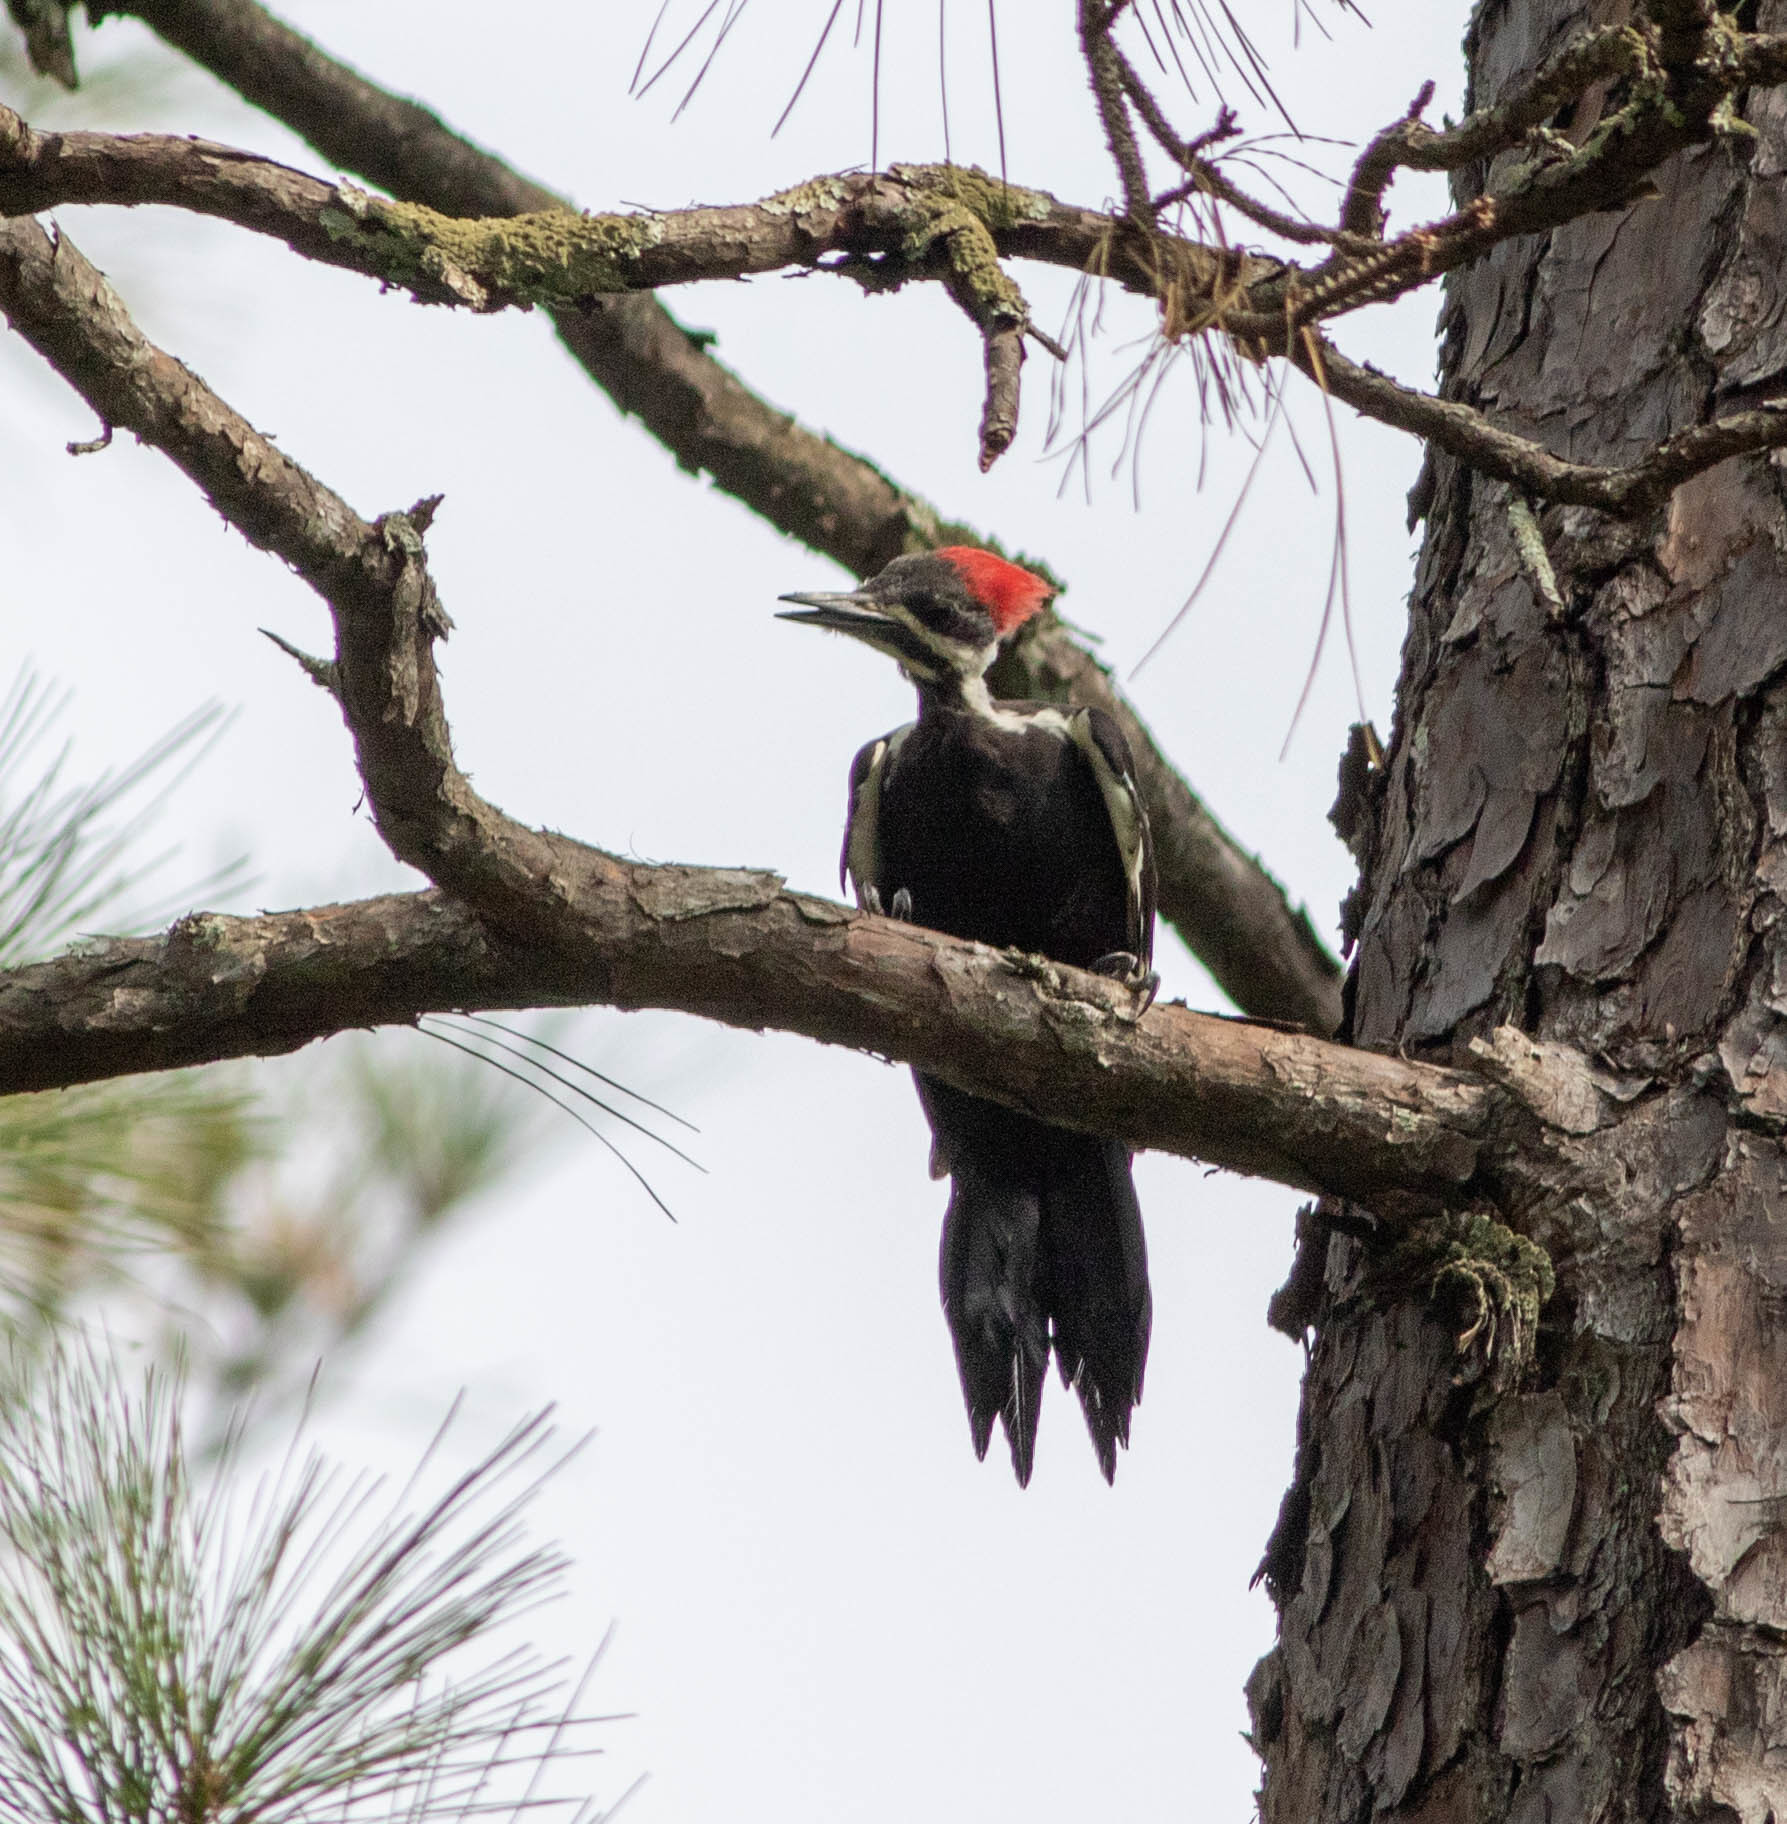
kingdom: Animalia
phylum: Chordata
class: Aves
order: Piciformes
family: Picidae
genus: Dryocopus
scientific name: Dryocopus pileatus
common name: Pileated woodpecker
